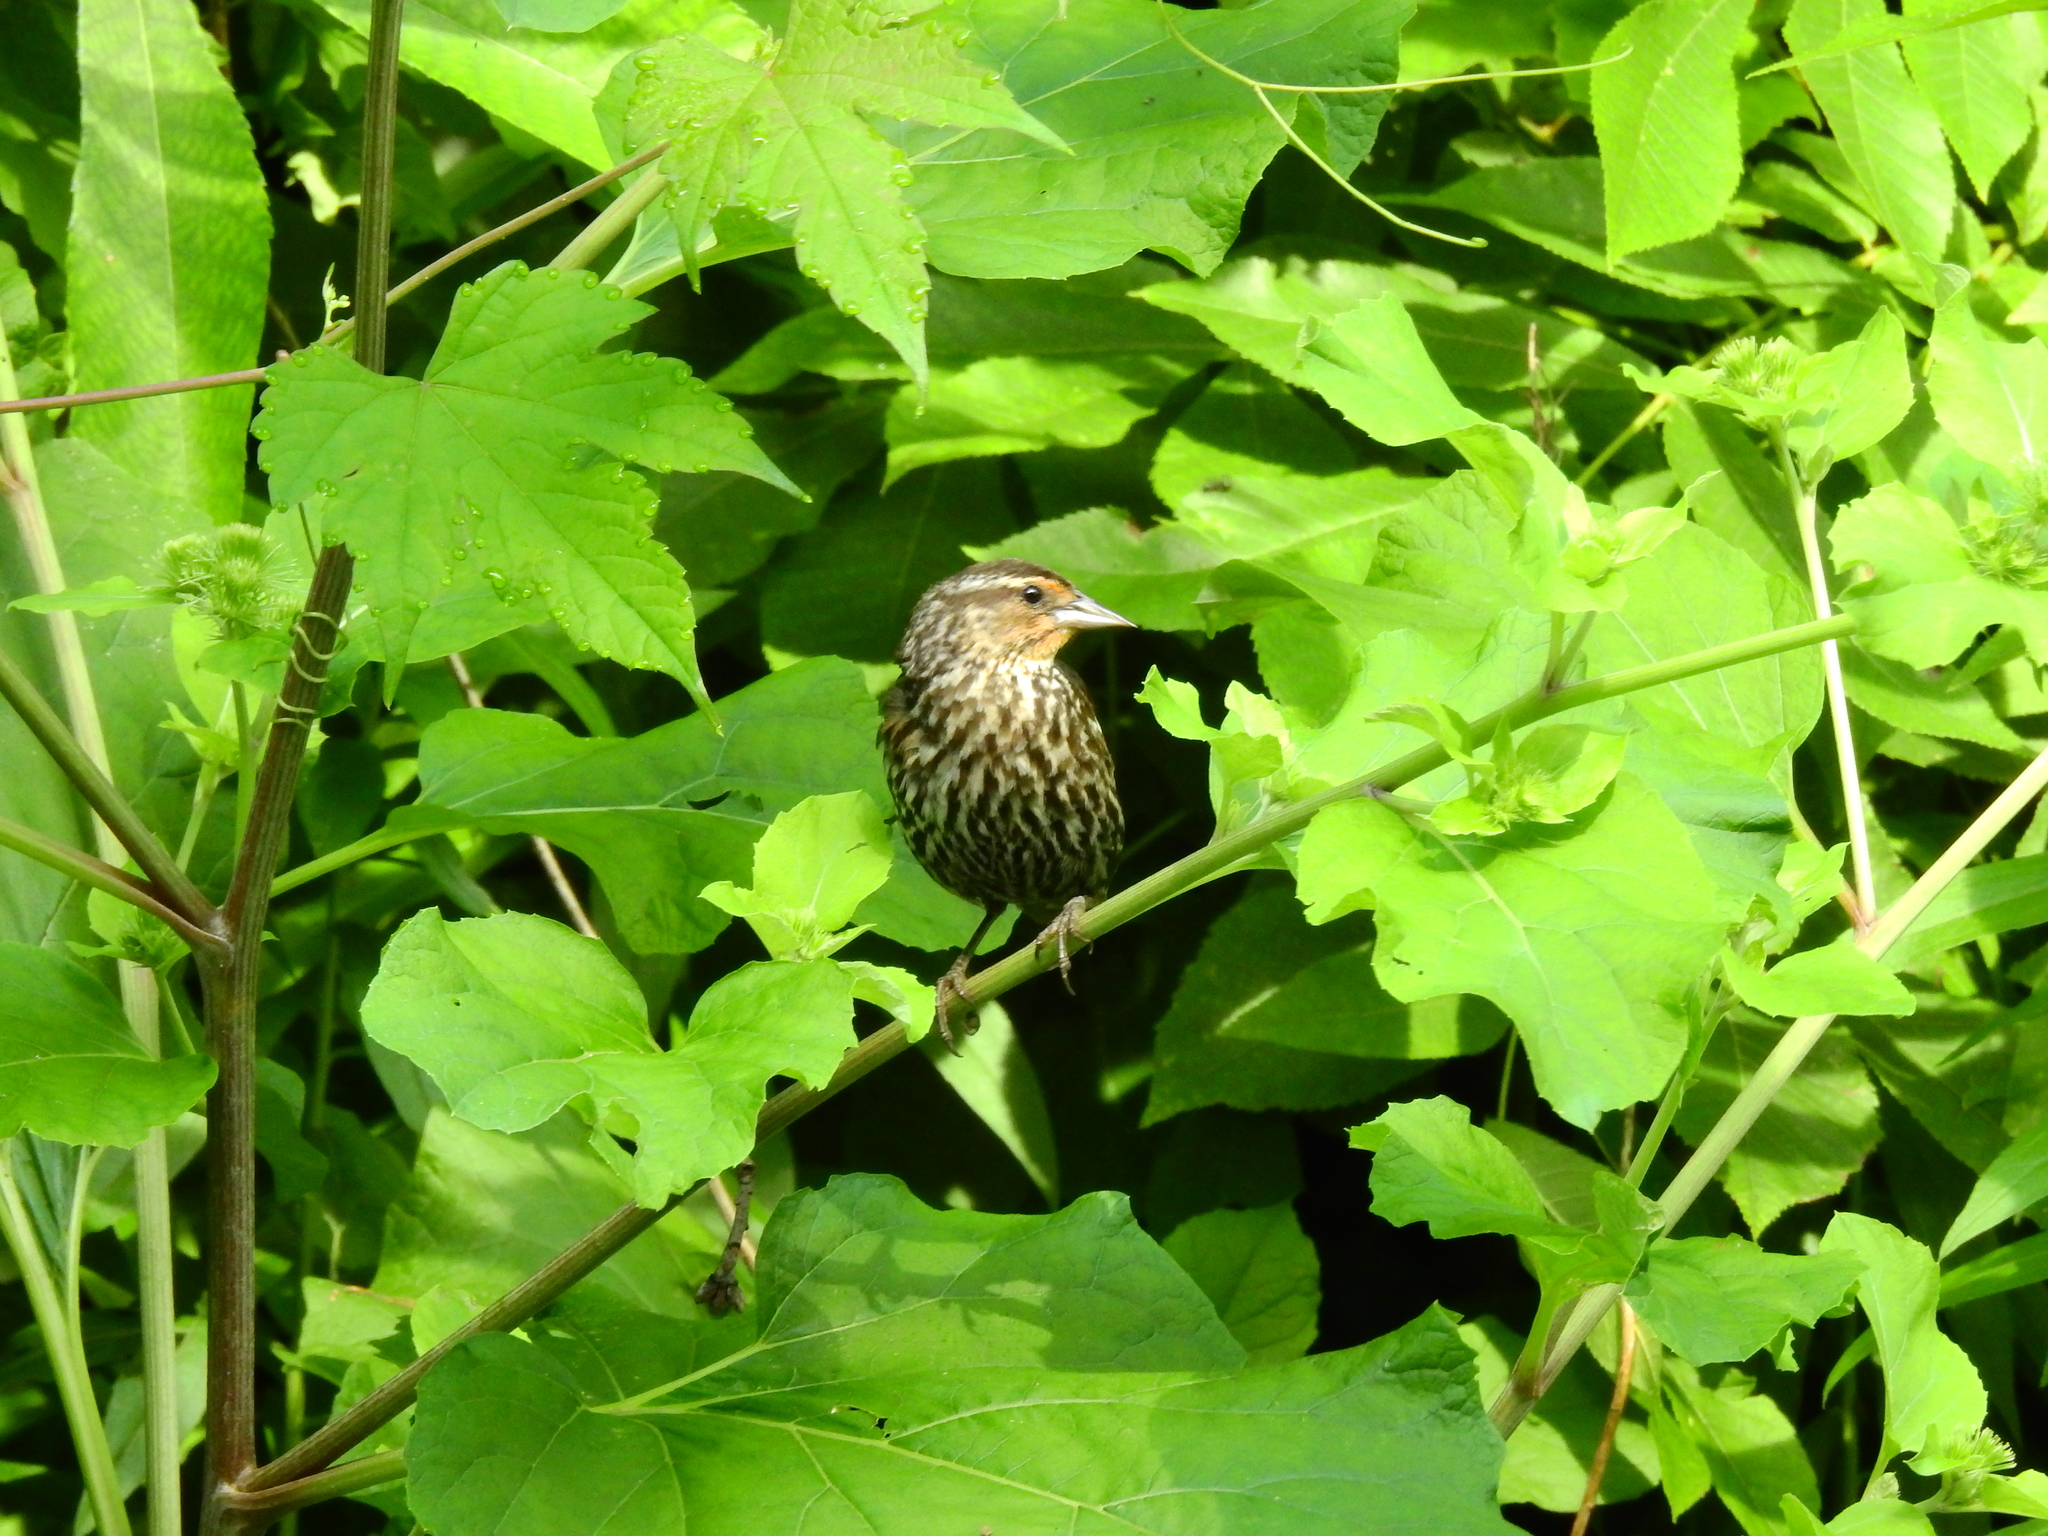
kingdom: Animalia
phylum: Chordata
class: Aves
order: Passeriformes
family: Icteridae
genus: Agelaius
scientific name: Agelaius phoeniceus
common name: Red-winged blackbird
